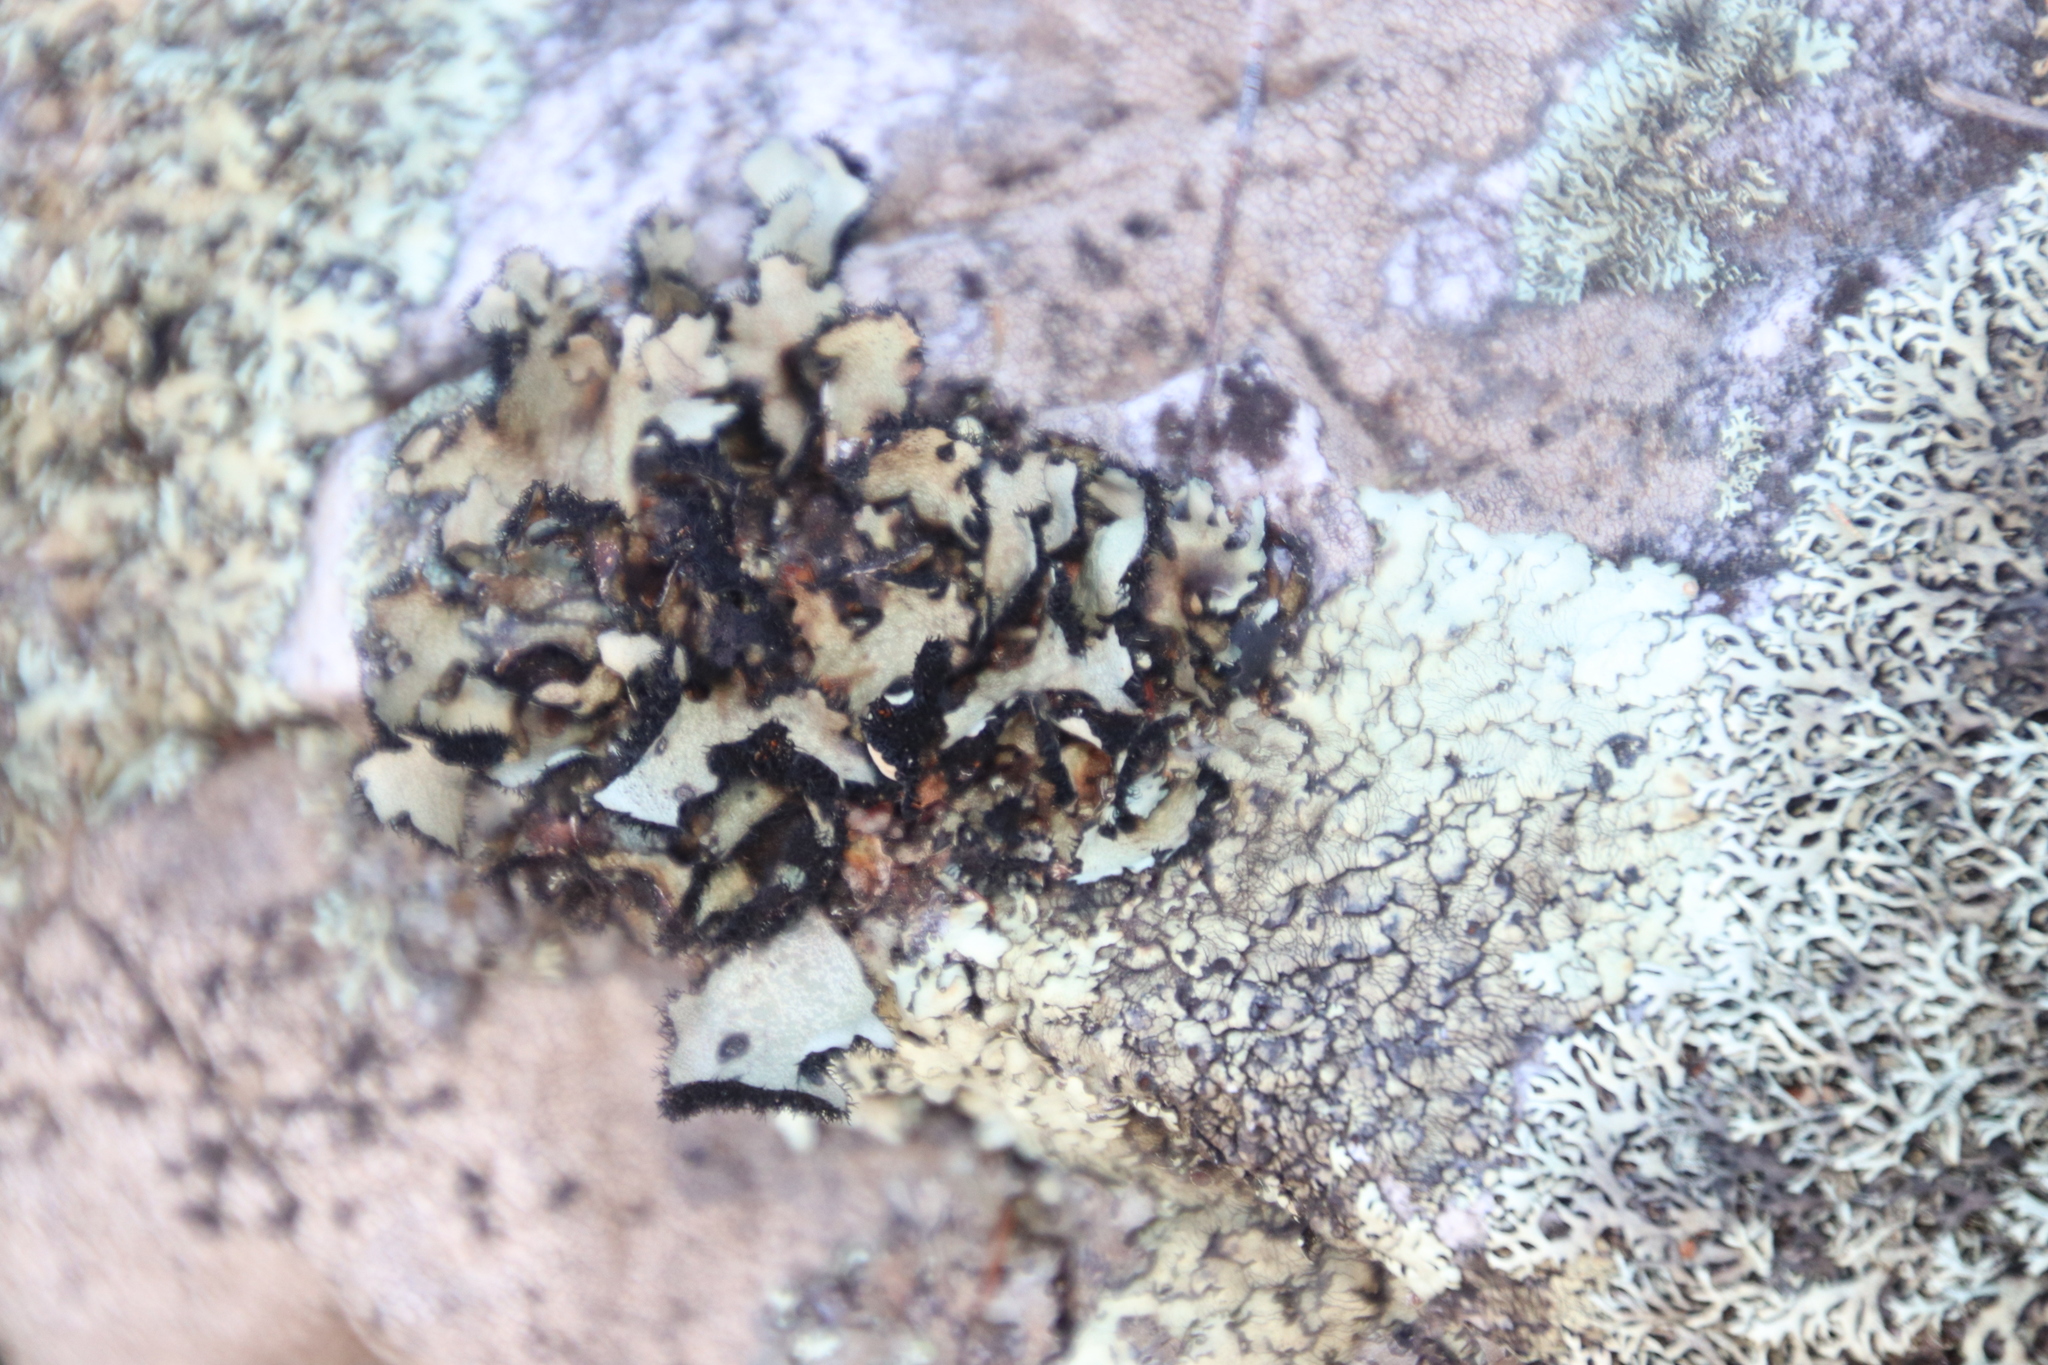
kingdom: Fungi
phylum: Ascomycota
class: Lecanoromycetes
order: Lecanorales
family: Parmeliaceae
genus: Xanthoparmelia
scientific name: Xanthoparmelia hottentotta
